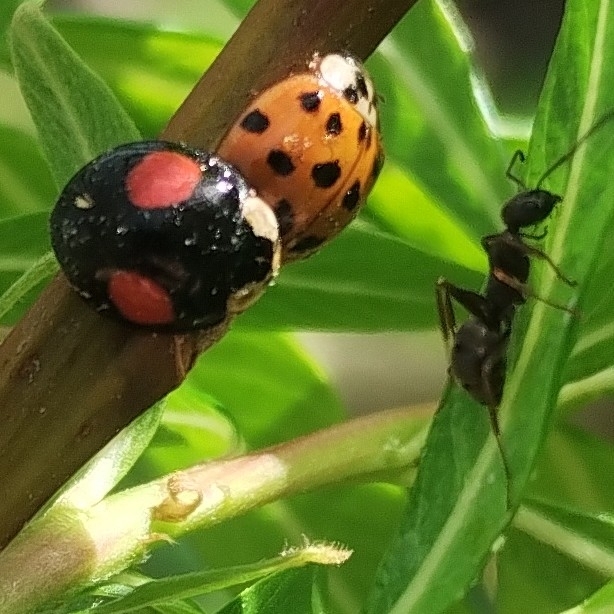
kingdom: Animalia
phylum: Arthropoda
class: Insecta
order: Coleoptera
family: Coccinellidae
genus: Harmonia
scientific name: Harmonia axyridis
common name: Harlequin ladybird
